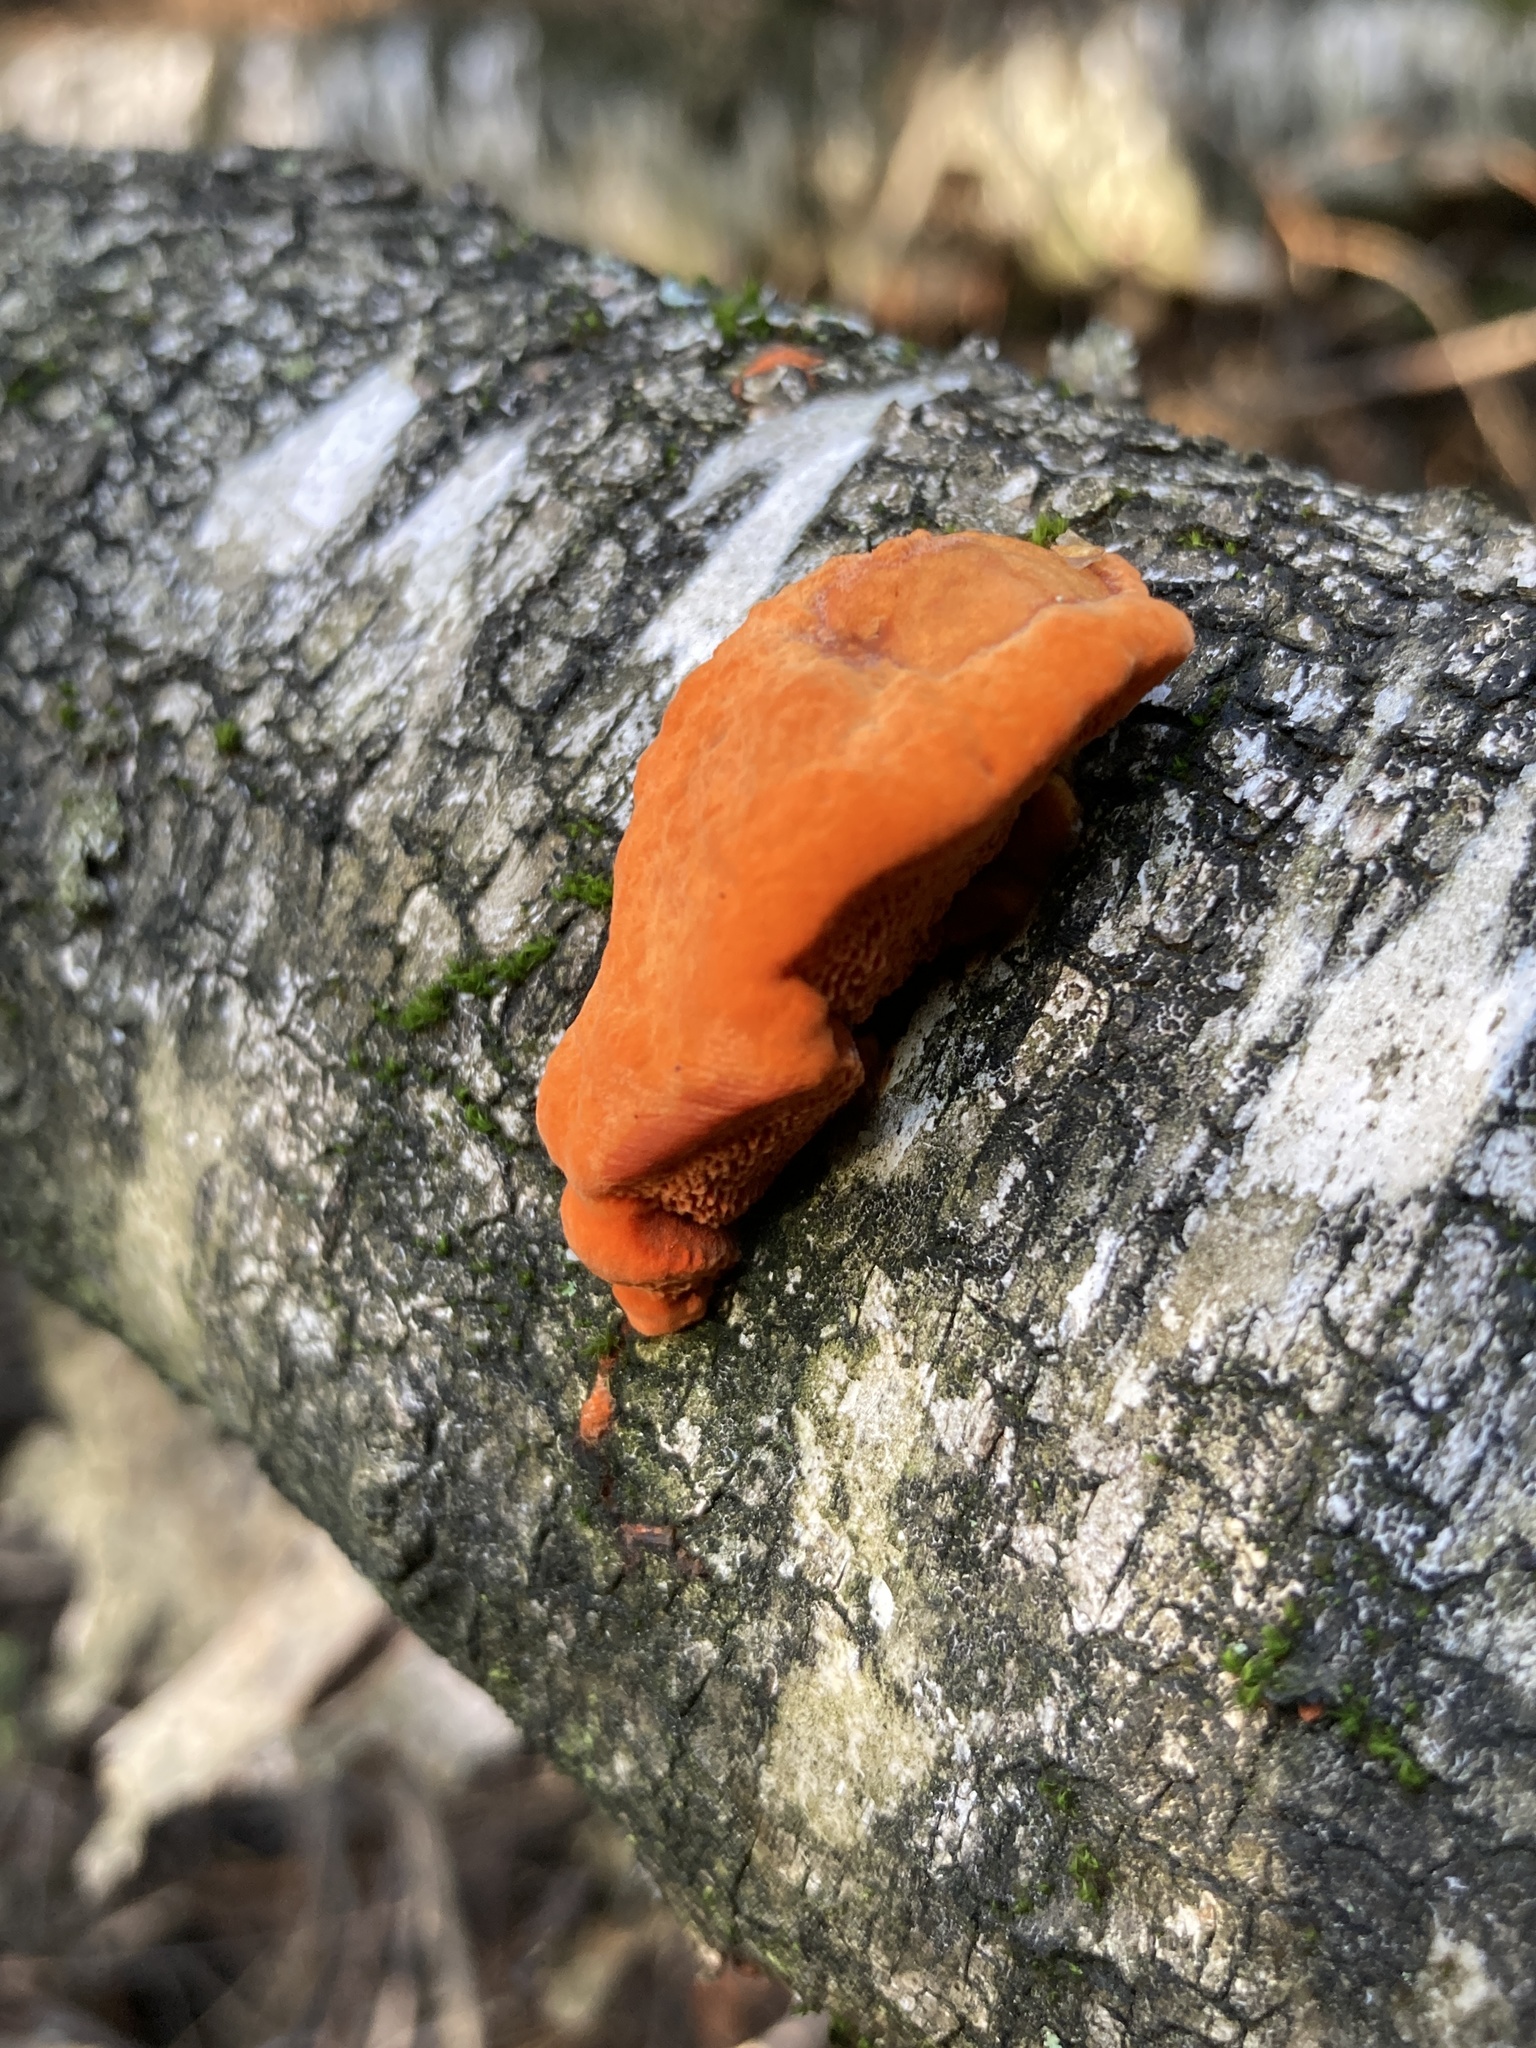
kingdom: Fungi
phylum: Basidiomycota
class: Agaricomycetes
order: Polyporales
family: Polyporaceae
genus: Trametes
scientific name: Trametes cinnabarina
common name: Northern cinnabar polypore
